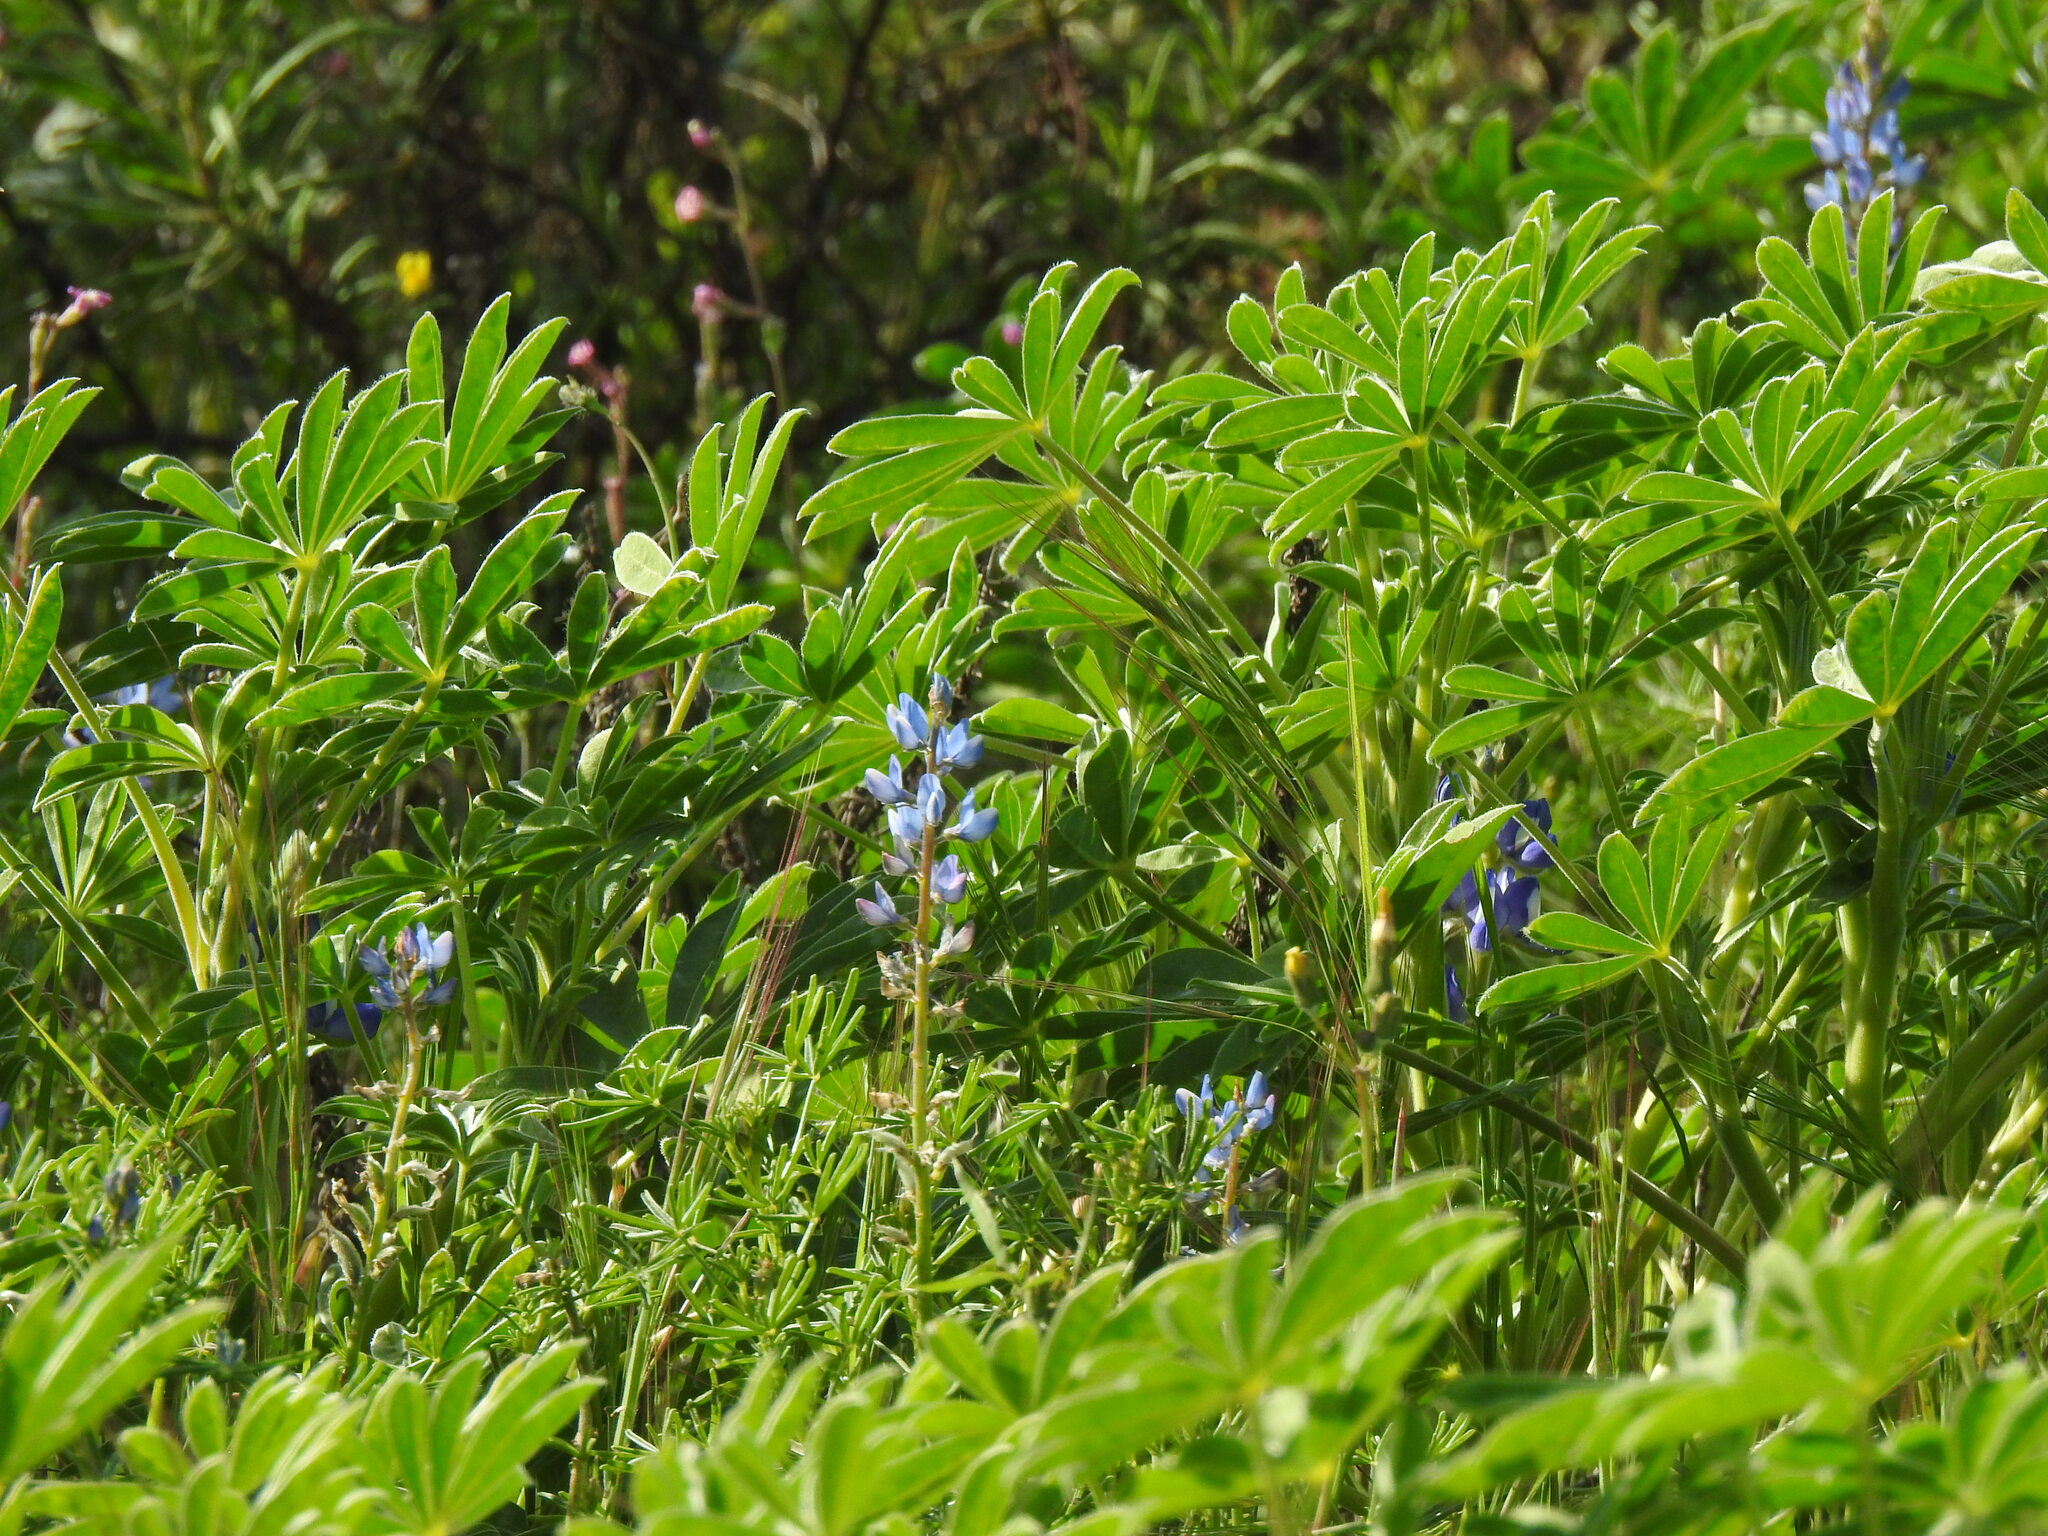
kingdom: Plantae
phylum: Tracheophyta
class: Magnoliopsida
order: Fabales
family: Fabaceae
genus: Lupinus
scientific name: Lupinus cosentinii
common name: Hairy blue lupin
